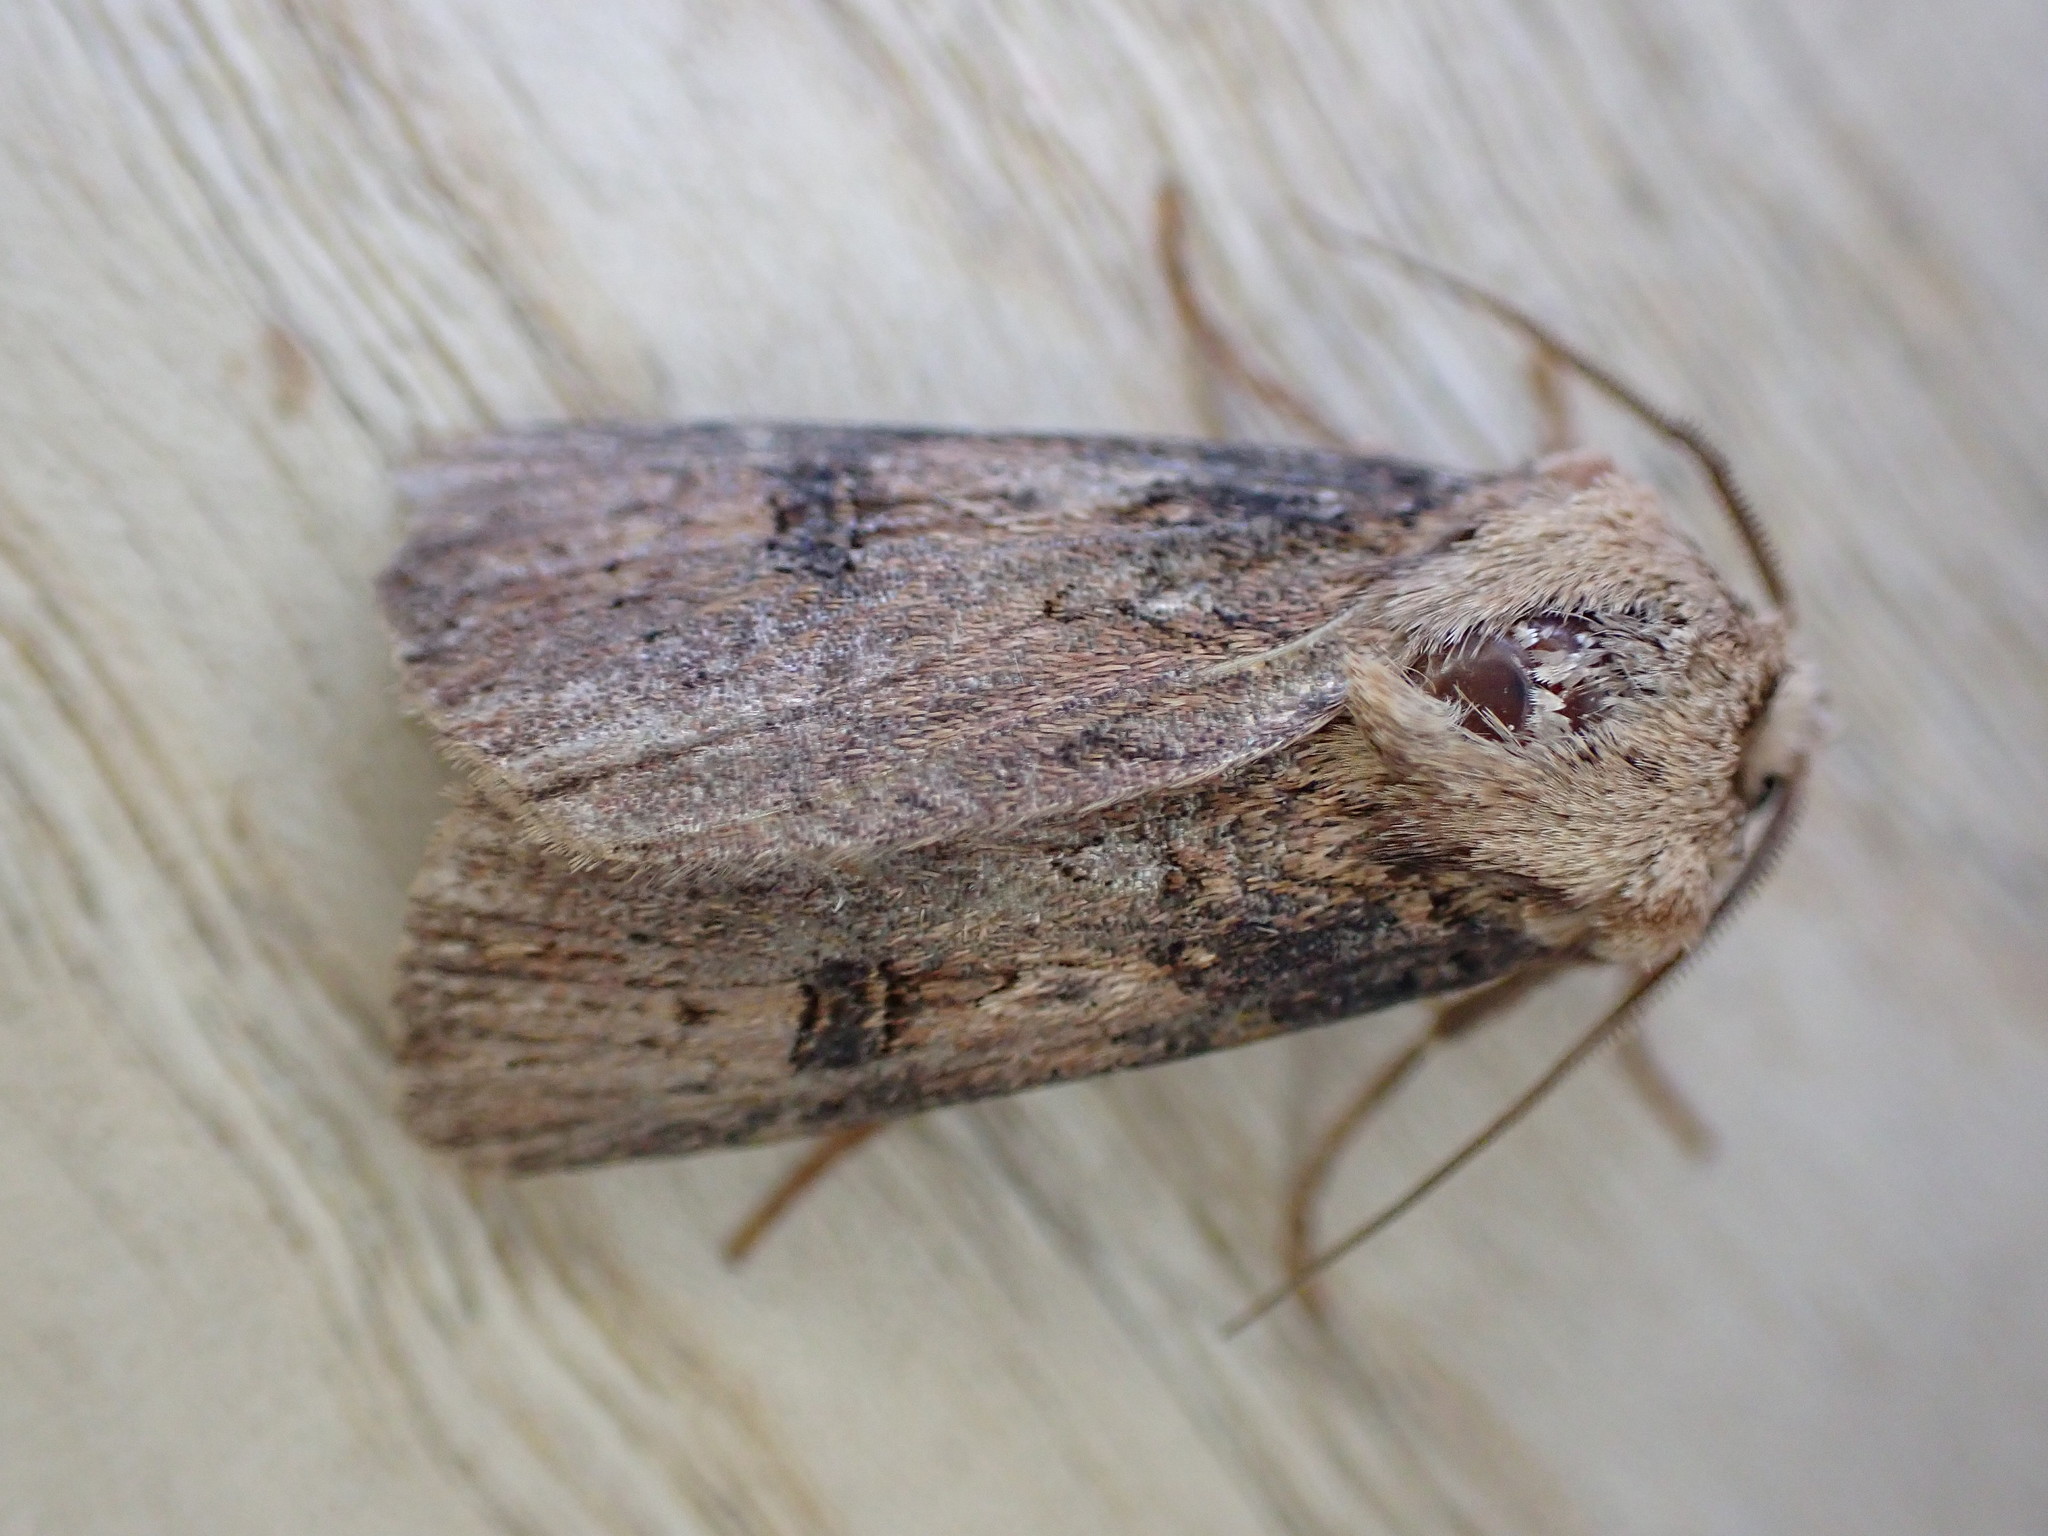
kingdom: Animalia
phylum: Arthropoda
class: Insecta
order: Lepidoptera
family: Noctuidae
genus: Agrotis
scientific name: Agrotis puta
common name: Shuttle-shaped dart
